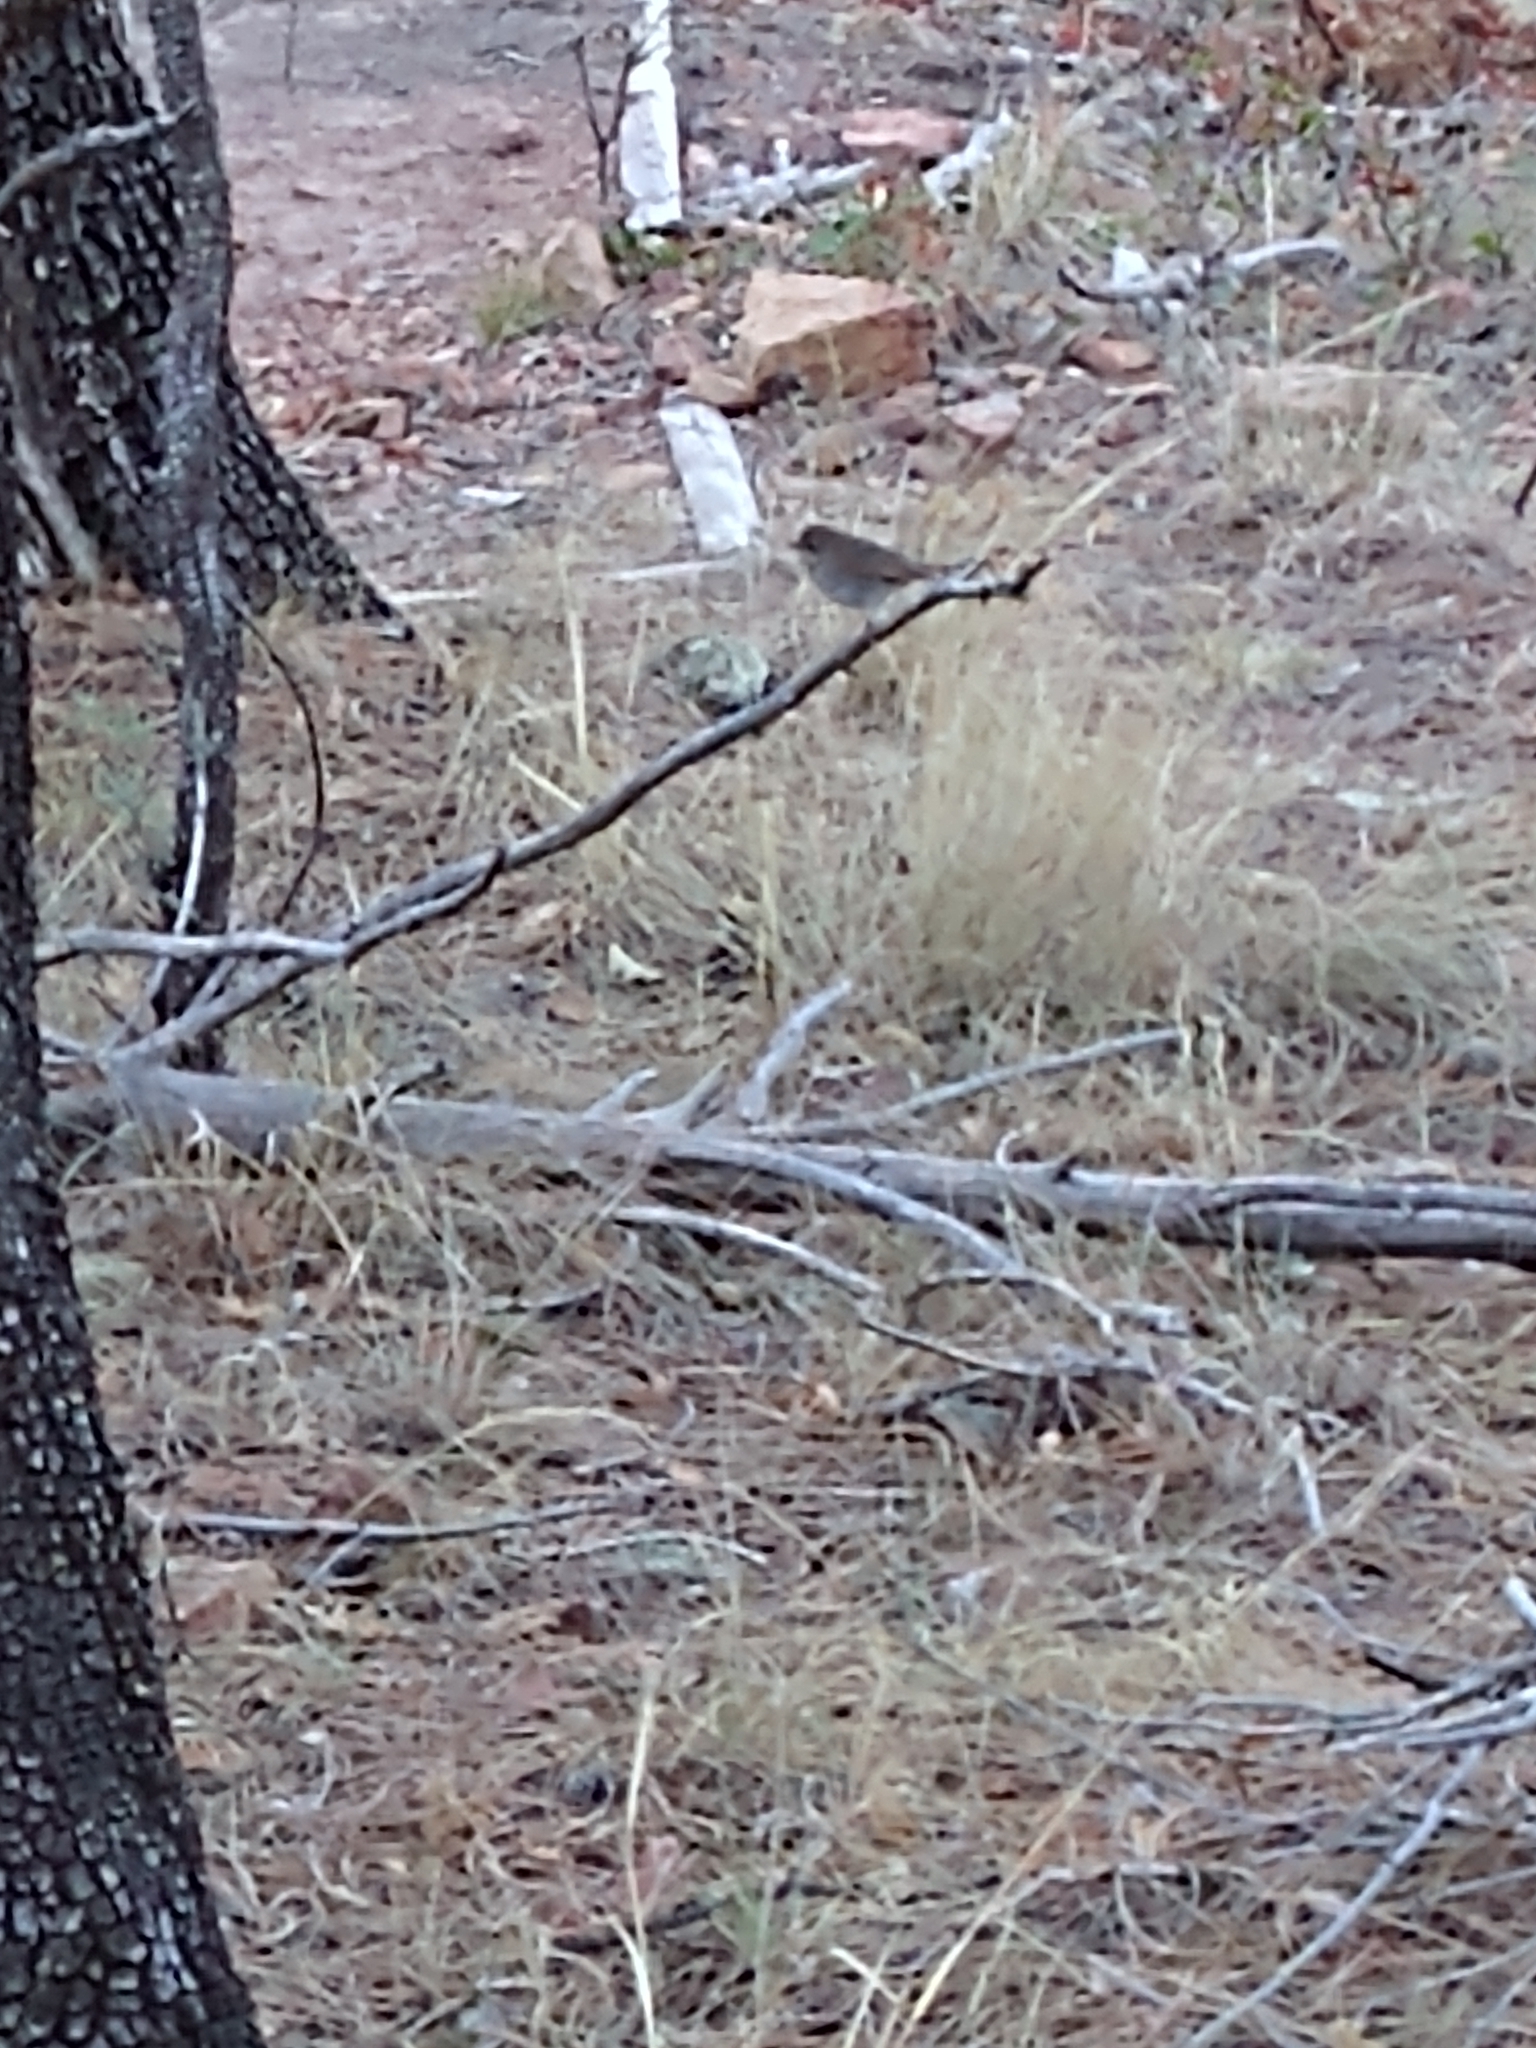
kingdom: Animalia
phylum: Chordata
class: Aves
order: Passeriformes
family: Turdidae
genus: Catharus
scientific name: Catharus guttatus
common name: Hermit thrush
